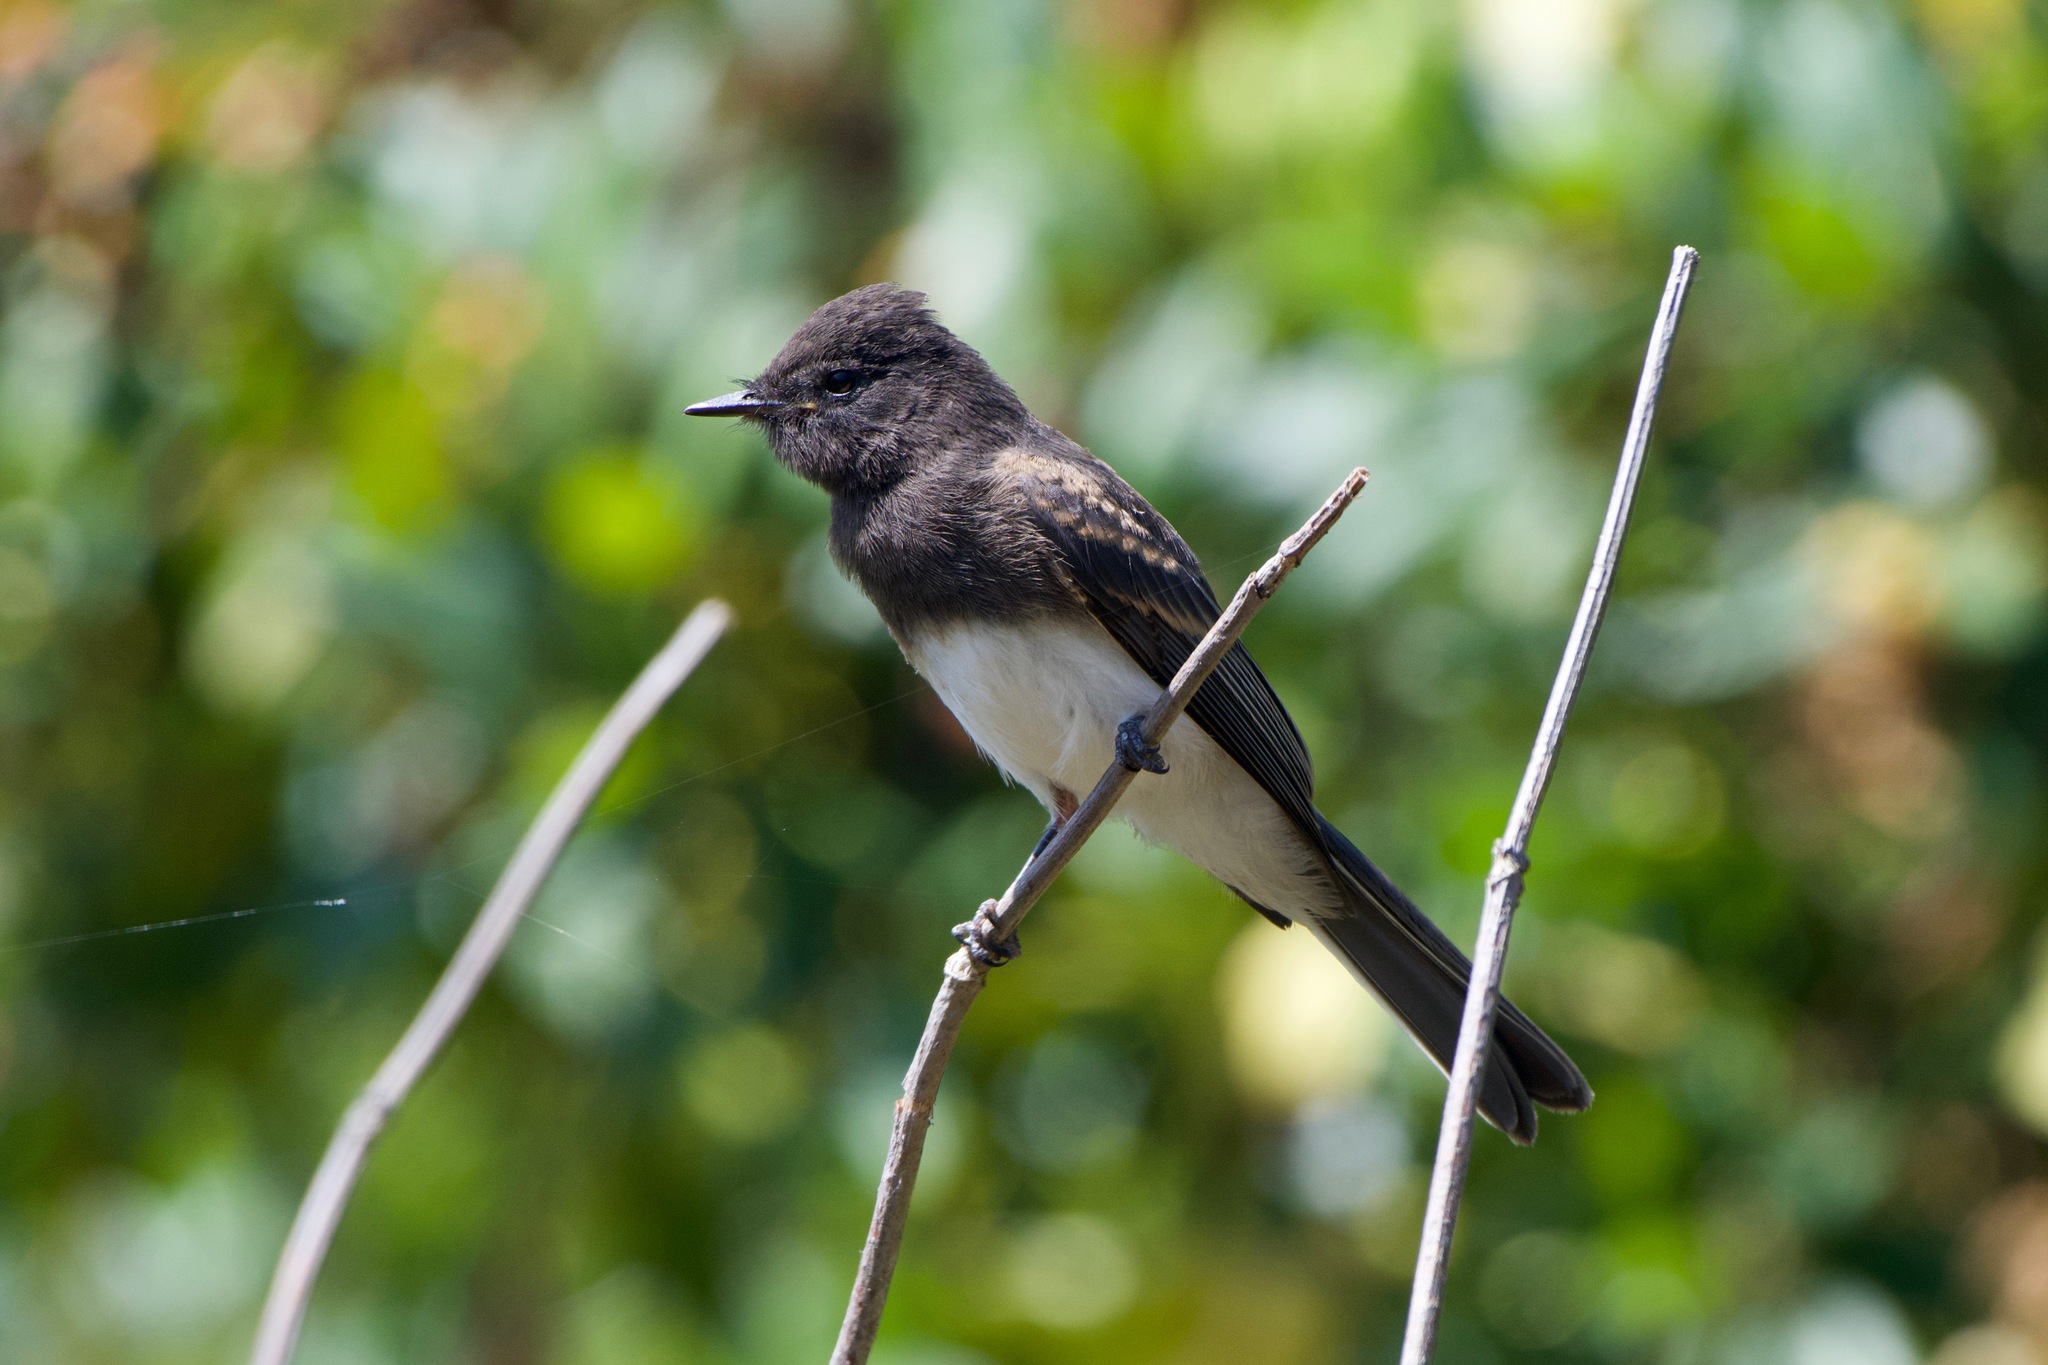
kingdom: Animalia
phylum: Chordata
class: Aves
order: Passeriformes
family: Tyrannidae
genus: Sayornis
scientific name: Sayornis nigricans
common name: Black phoebe
